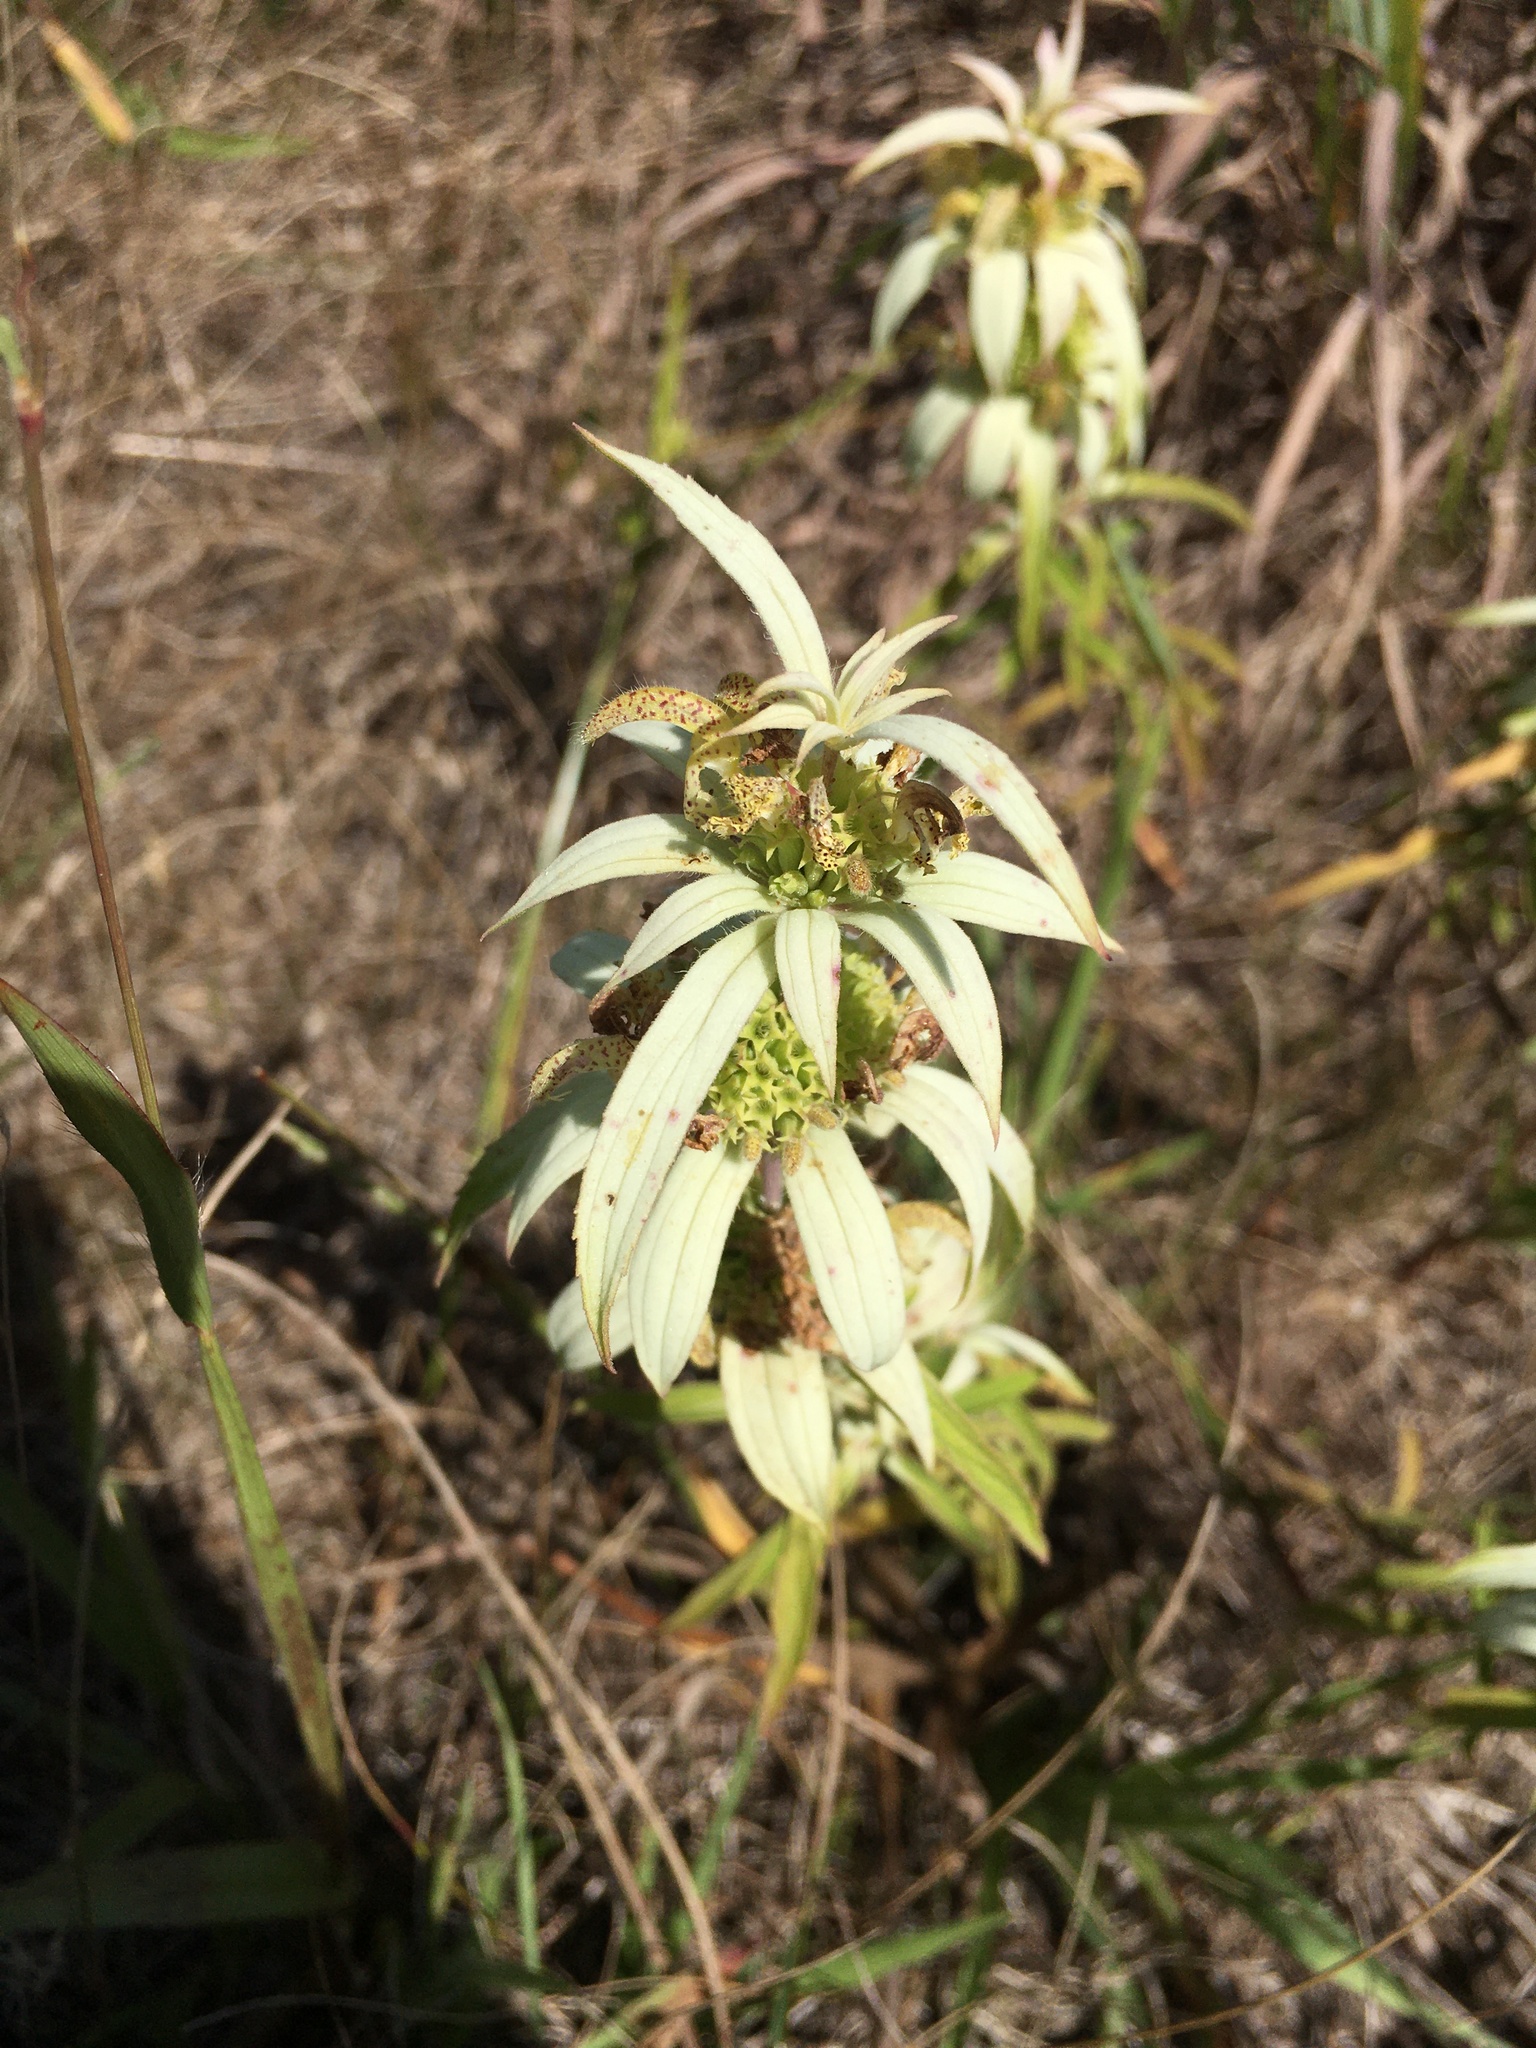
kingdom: Plantae
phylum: Tracheophyta
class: Magnoliopsida
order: Lamiales
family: Lamiaceae
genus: Monarda
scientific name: Monarda punctata
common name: Dotted monarda
